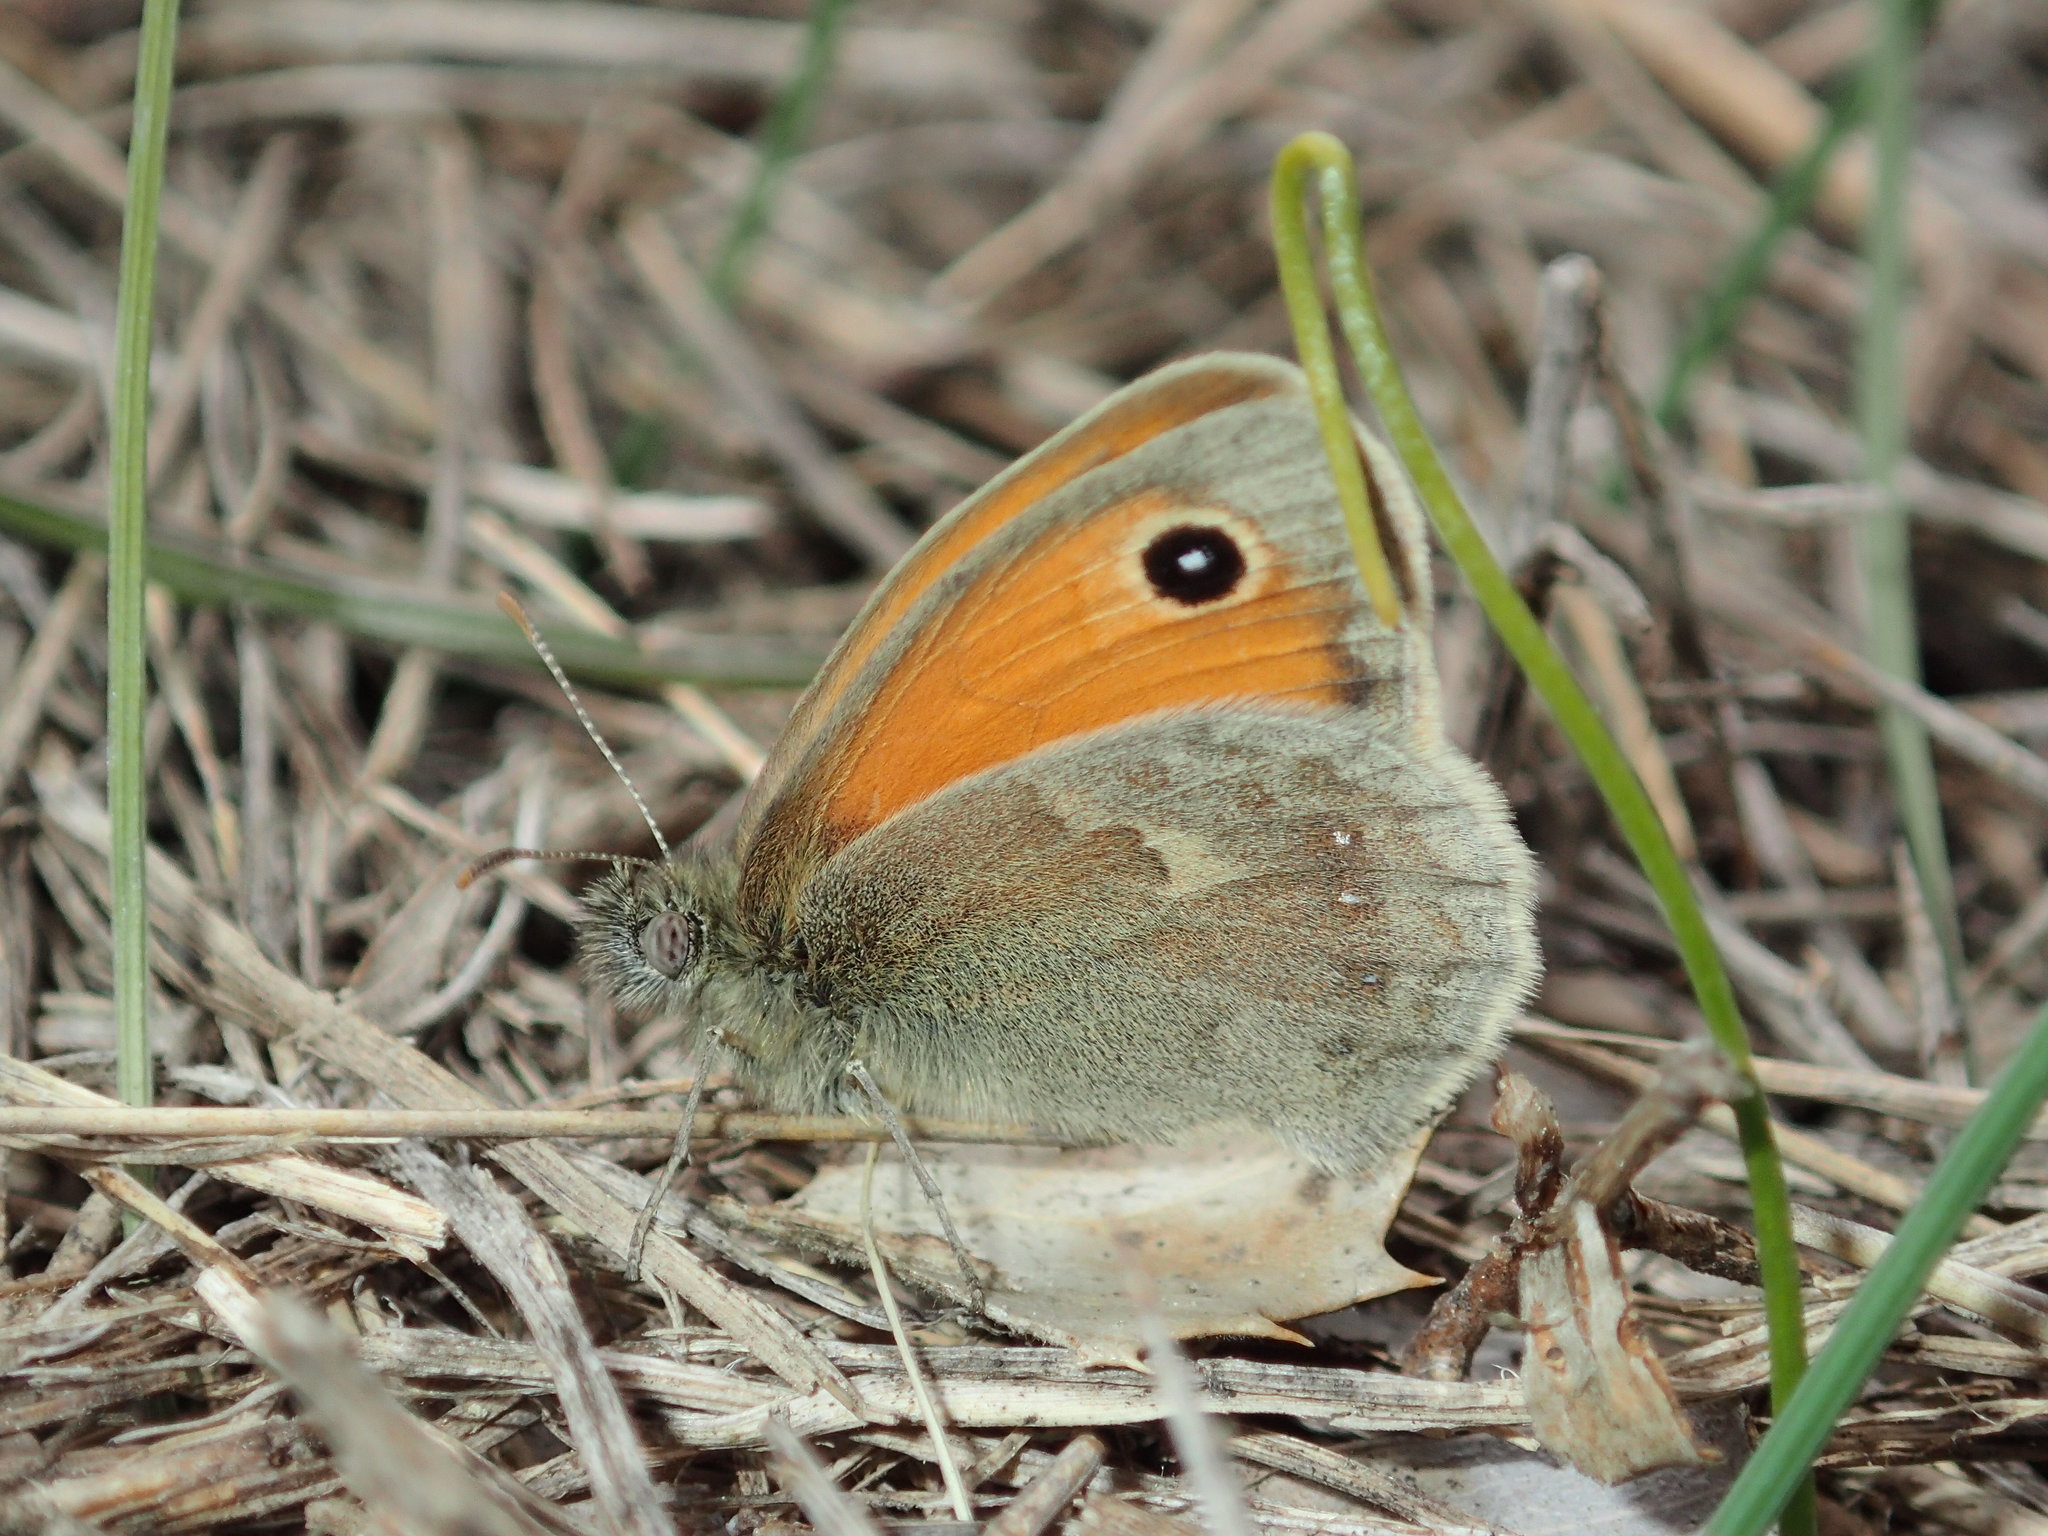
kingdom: Animalia
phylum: Arthropoda
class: Insecta
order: Lepidoptera
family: Nymphalidae
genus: Coenonympha
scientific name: Coenonympha pamphilus
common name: Small heath
